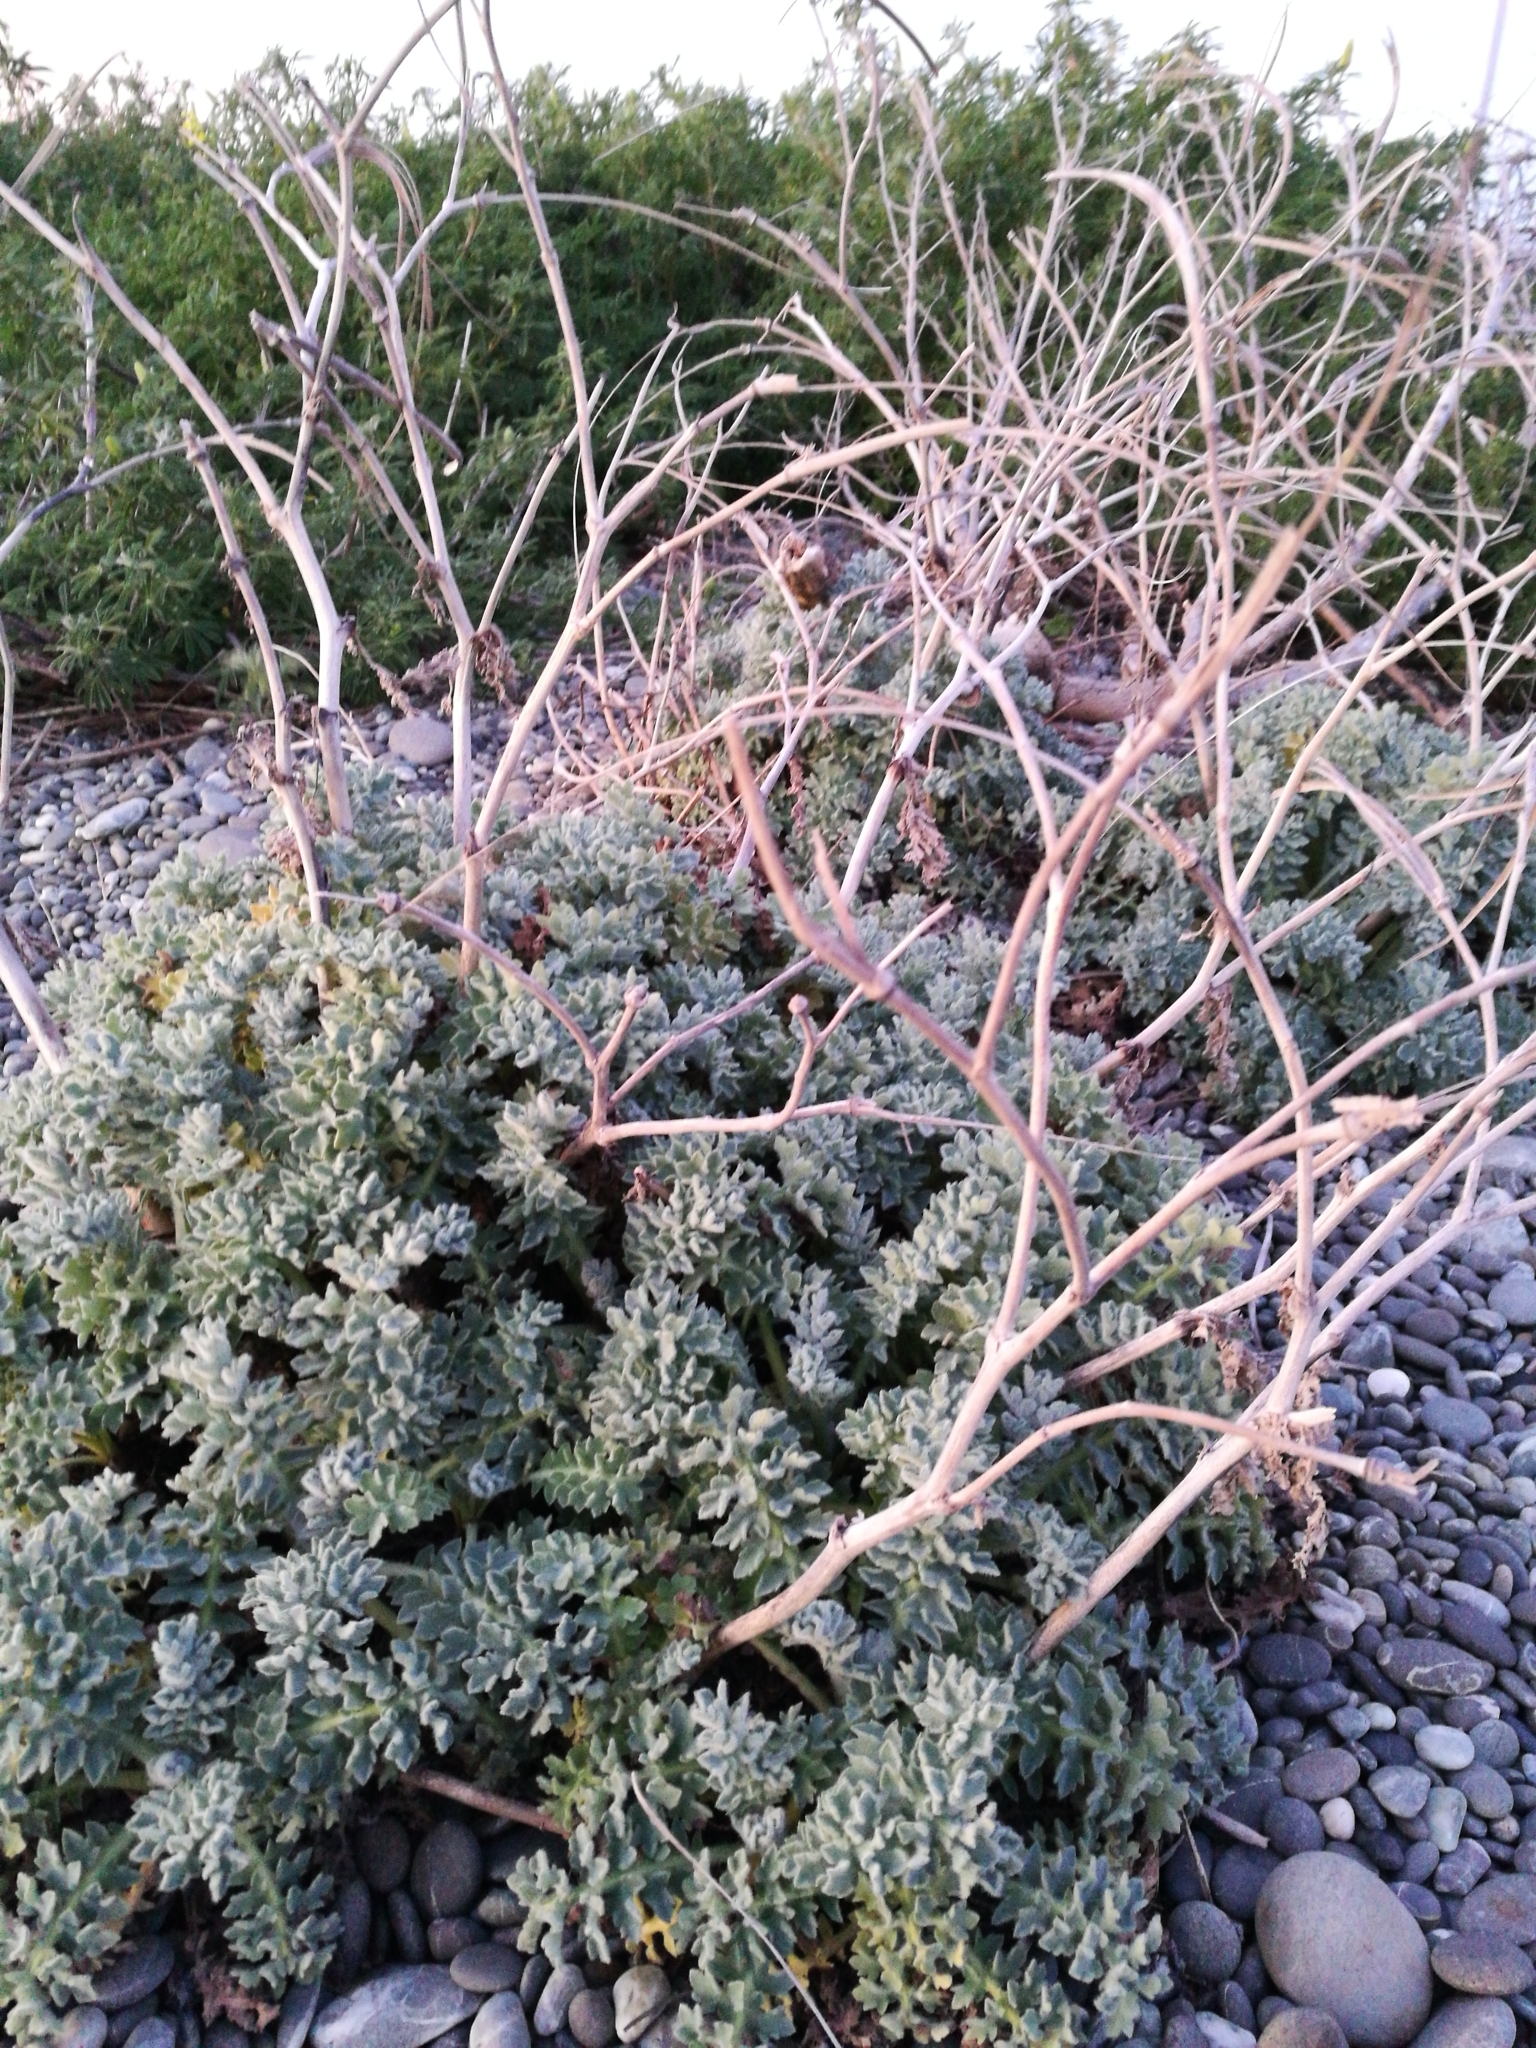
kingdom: Plantae
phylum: Tracheophyta
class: Magnoliopsida
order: Ranunculales
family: Papaveraceae
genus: Glaucium
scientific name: Glaucium flavum
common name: Yellow horned-poppy
